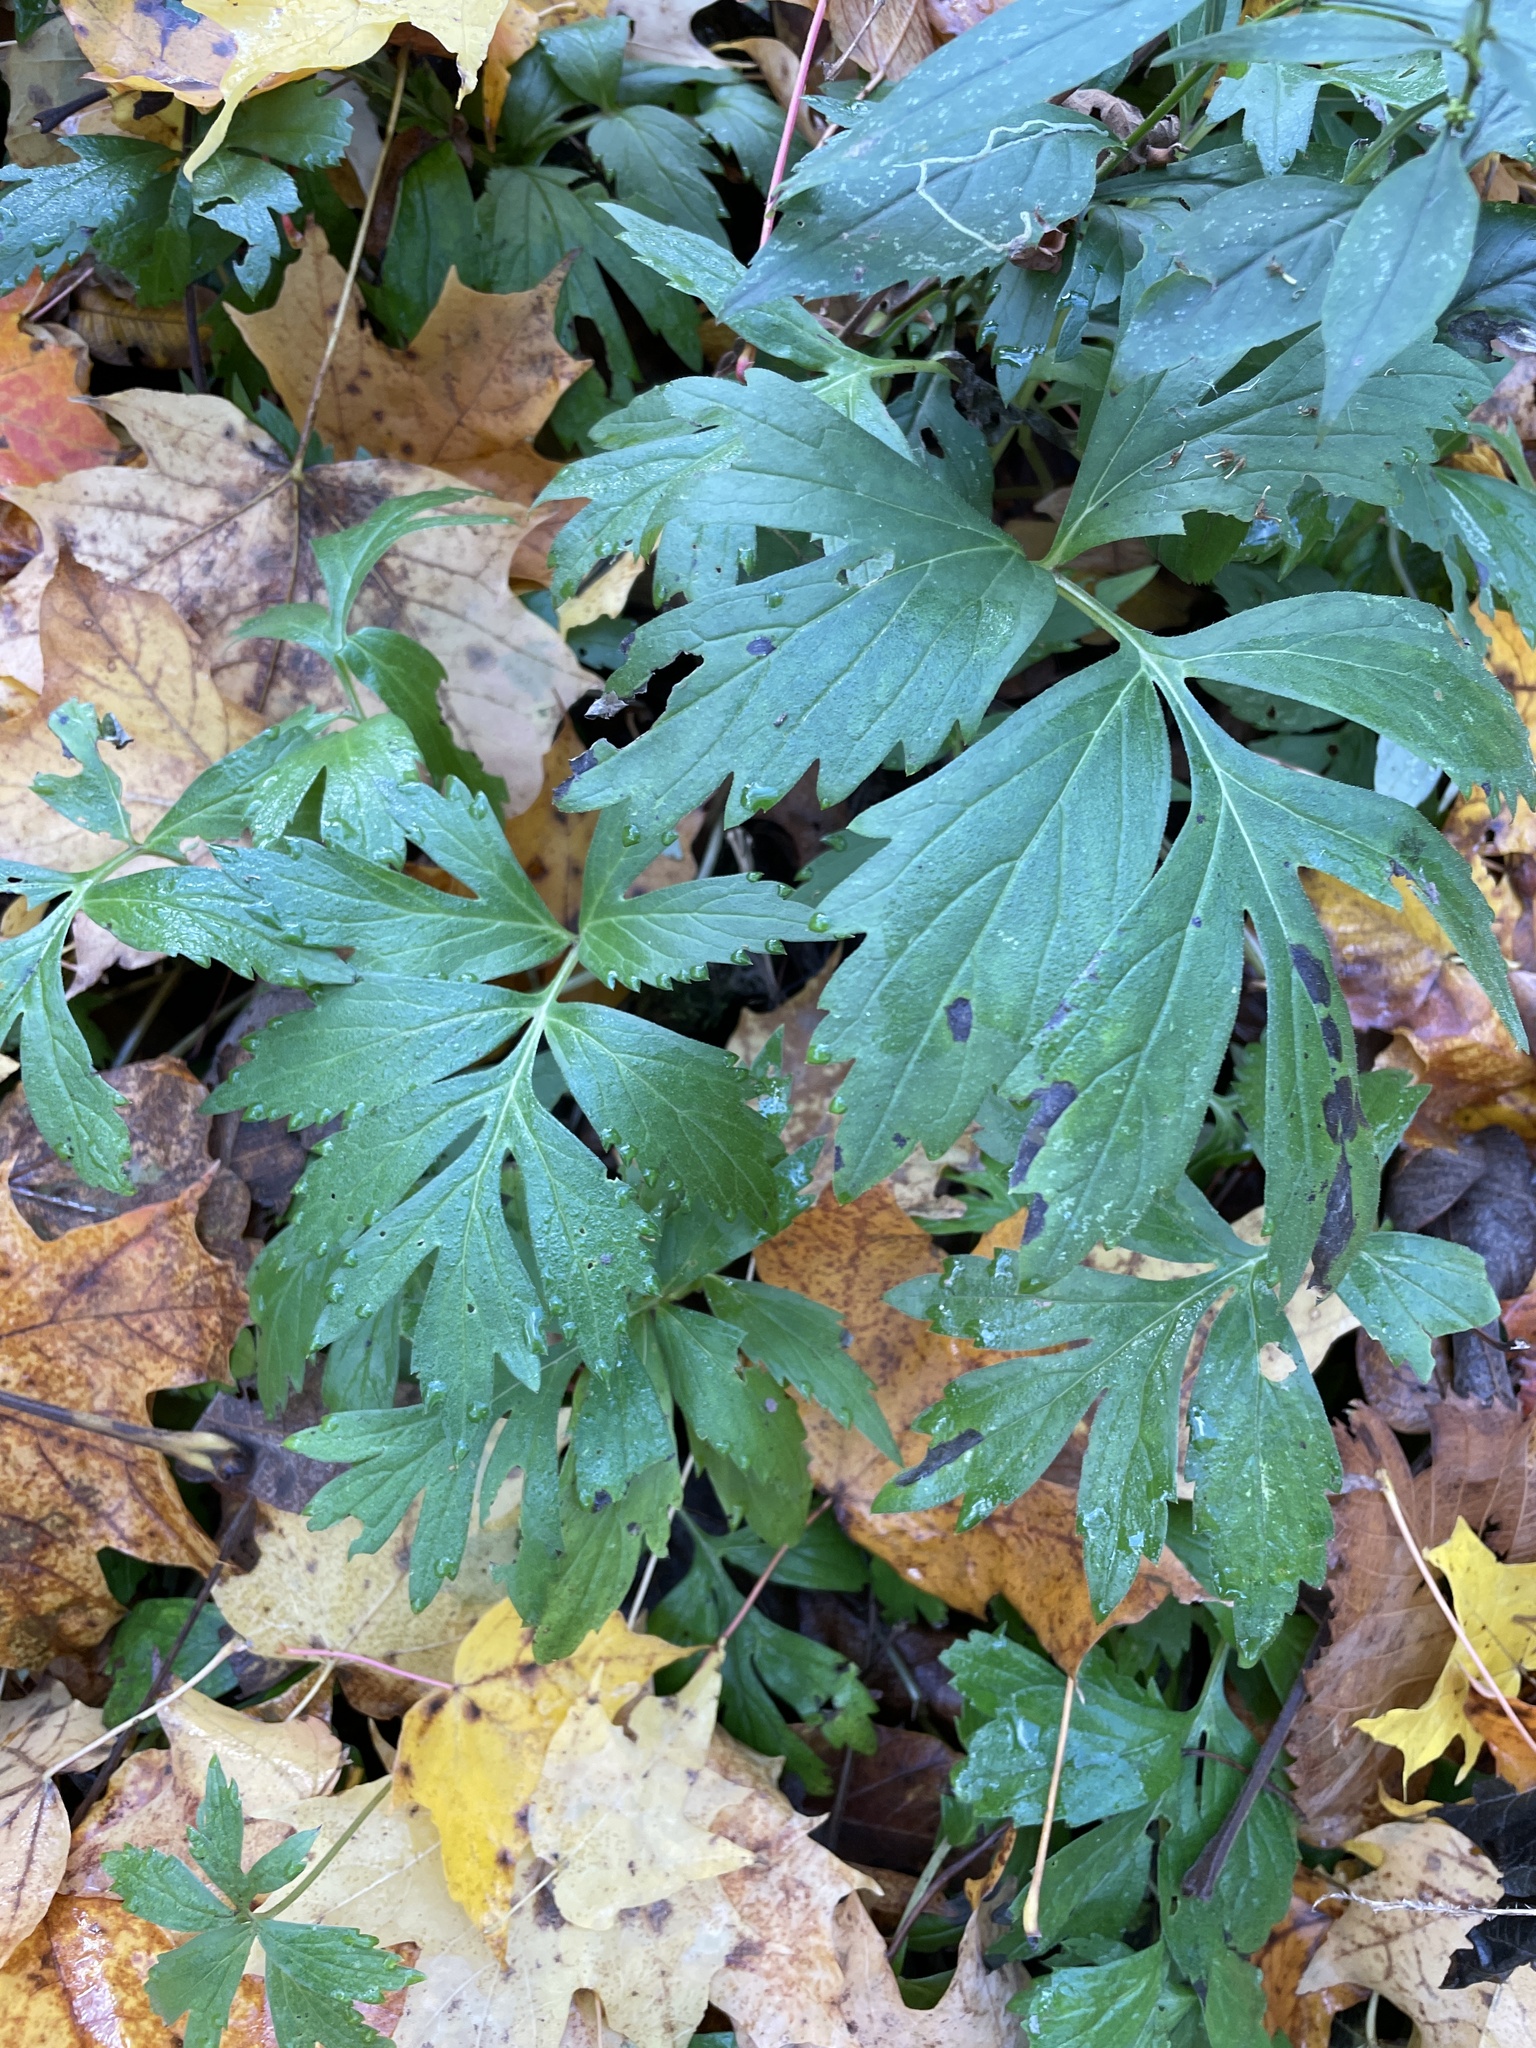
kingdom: Plantae
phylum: Tracheophyta
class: Magnoliopsida
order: Boraginales
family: Hydrophyllaceae
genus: Hydrophyllum
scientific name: Hydrophyllum virginianum
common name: Virginia waterleaf
